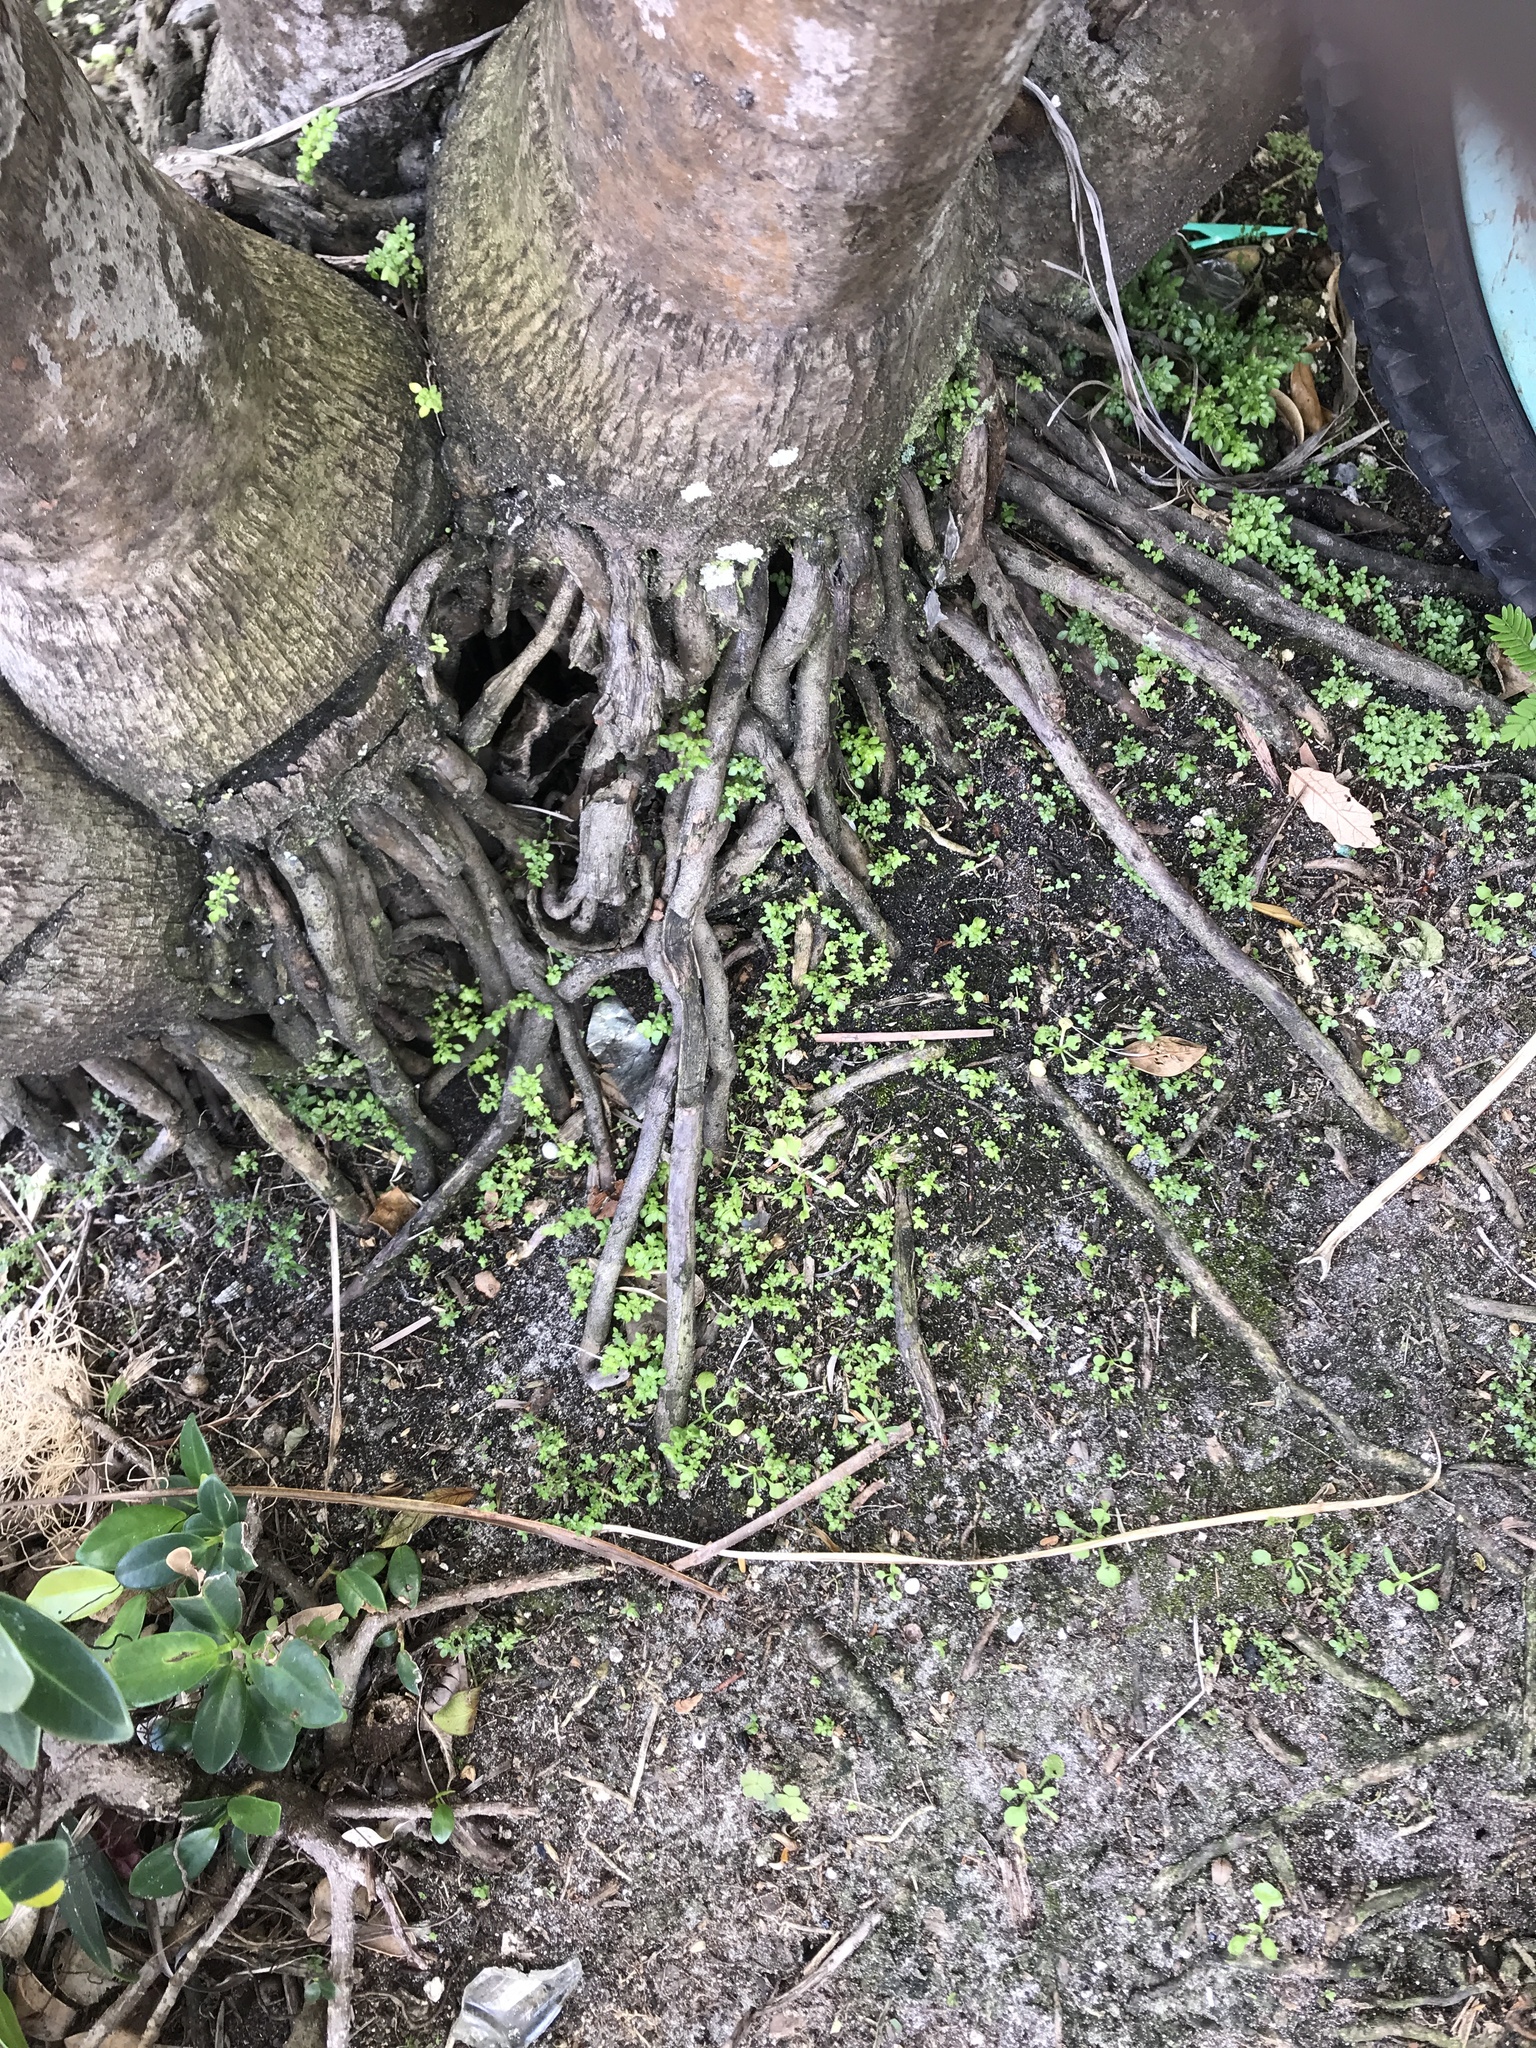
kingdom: Plantae
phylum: Tracheophyta
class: Magnoliopsida
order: Rosales
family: Urticaceae
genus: Pilea
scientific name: Pilea microphylla
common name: Artillery-plant
